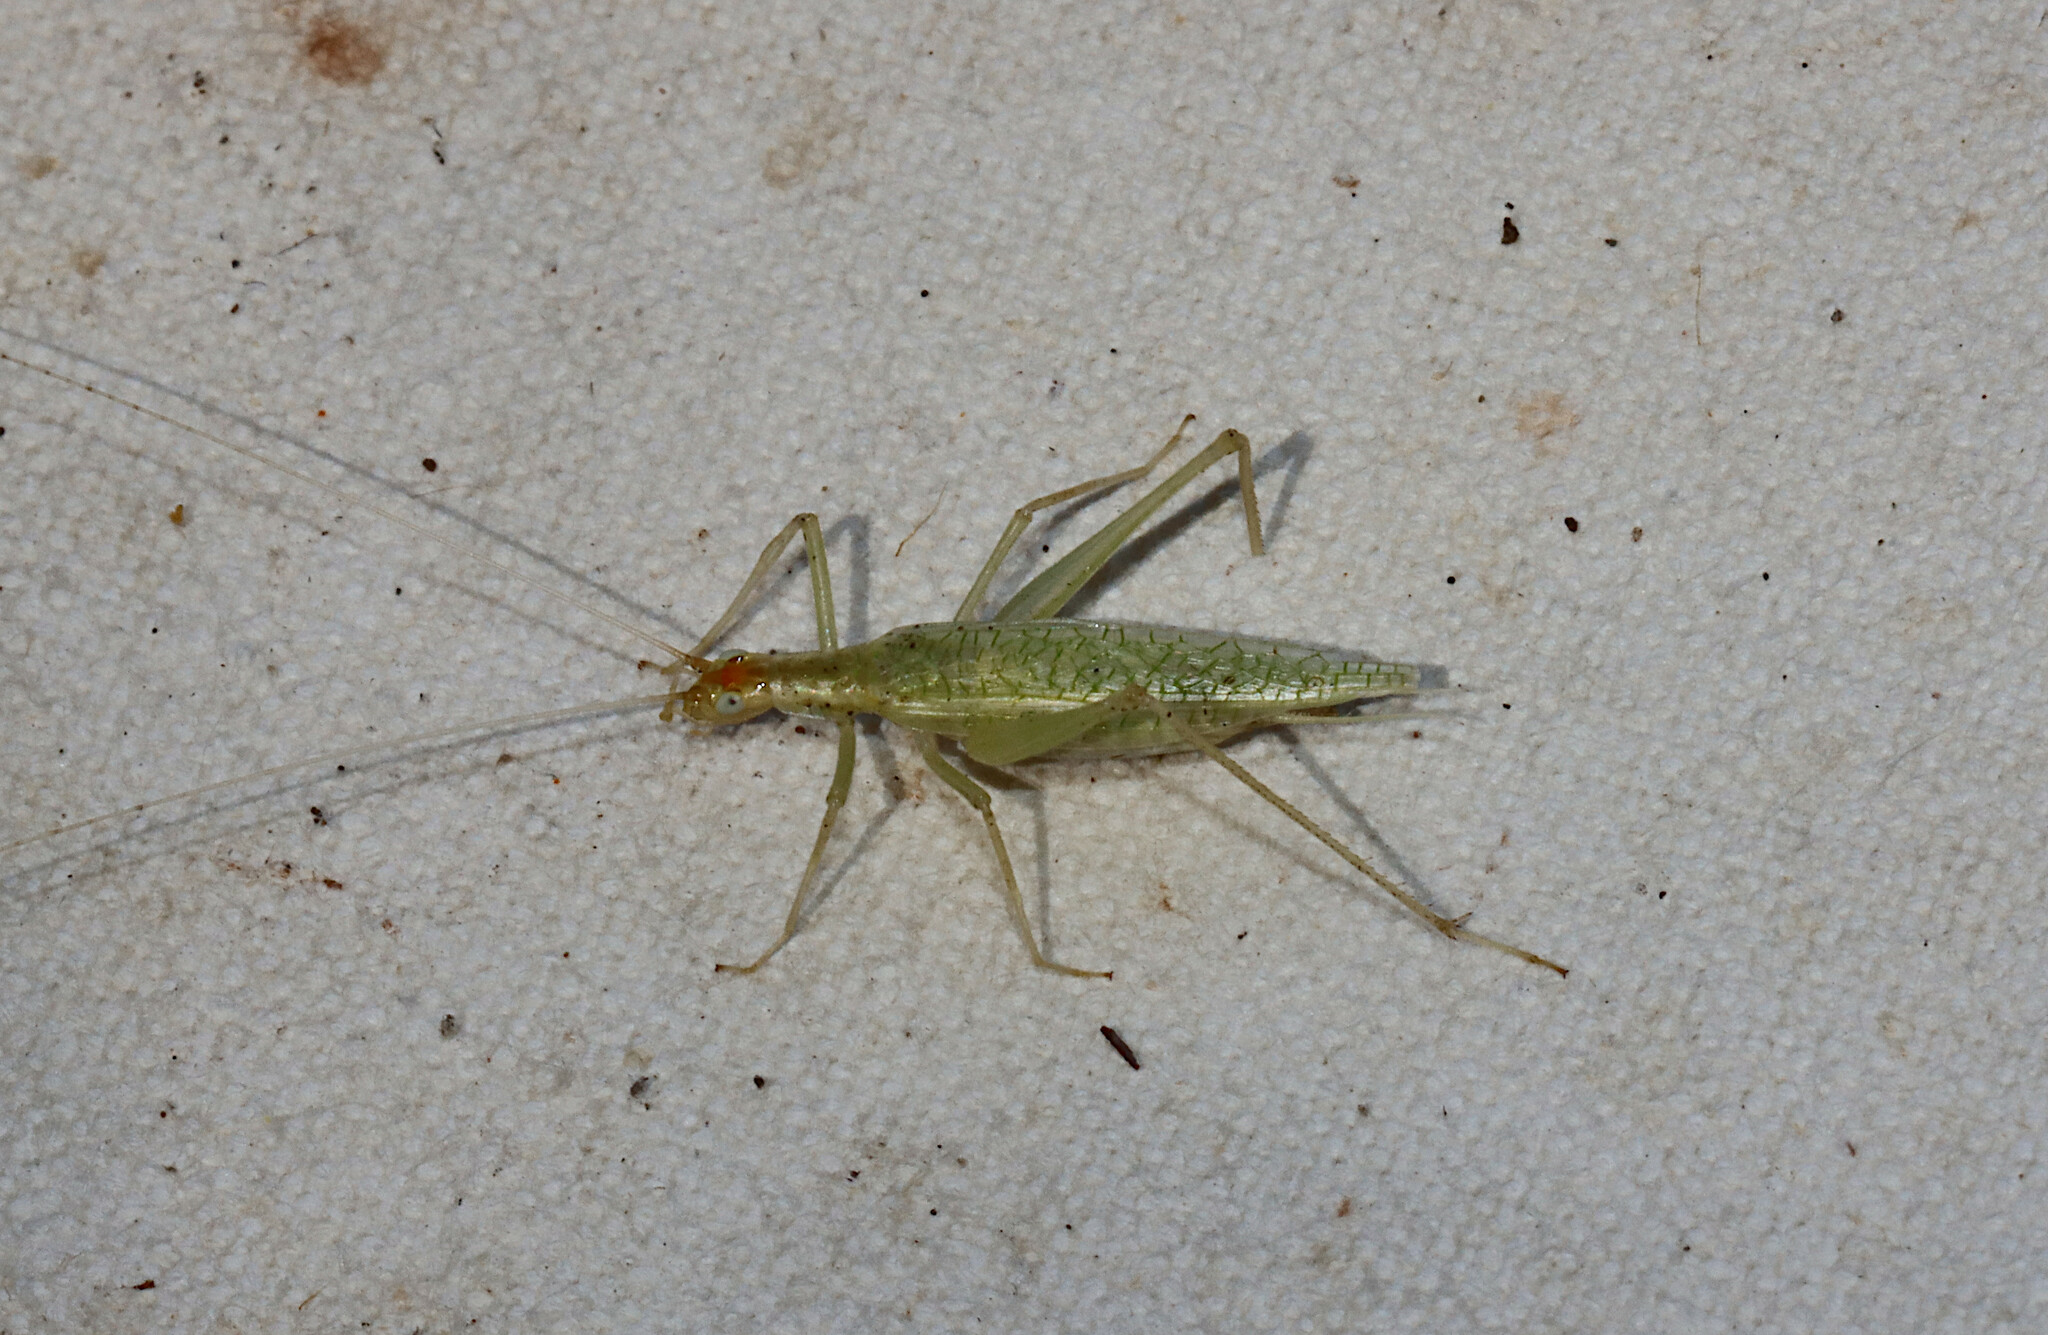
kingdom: Animalia
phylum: Arthropoda
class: Insecta
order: Orthoptera
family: Gryllidae
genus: Oecanthus
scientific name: Oecanthus niveus
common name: Narrow-winged tree cricket
